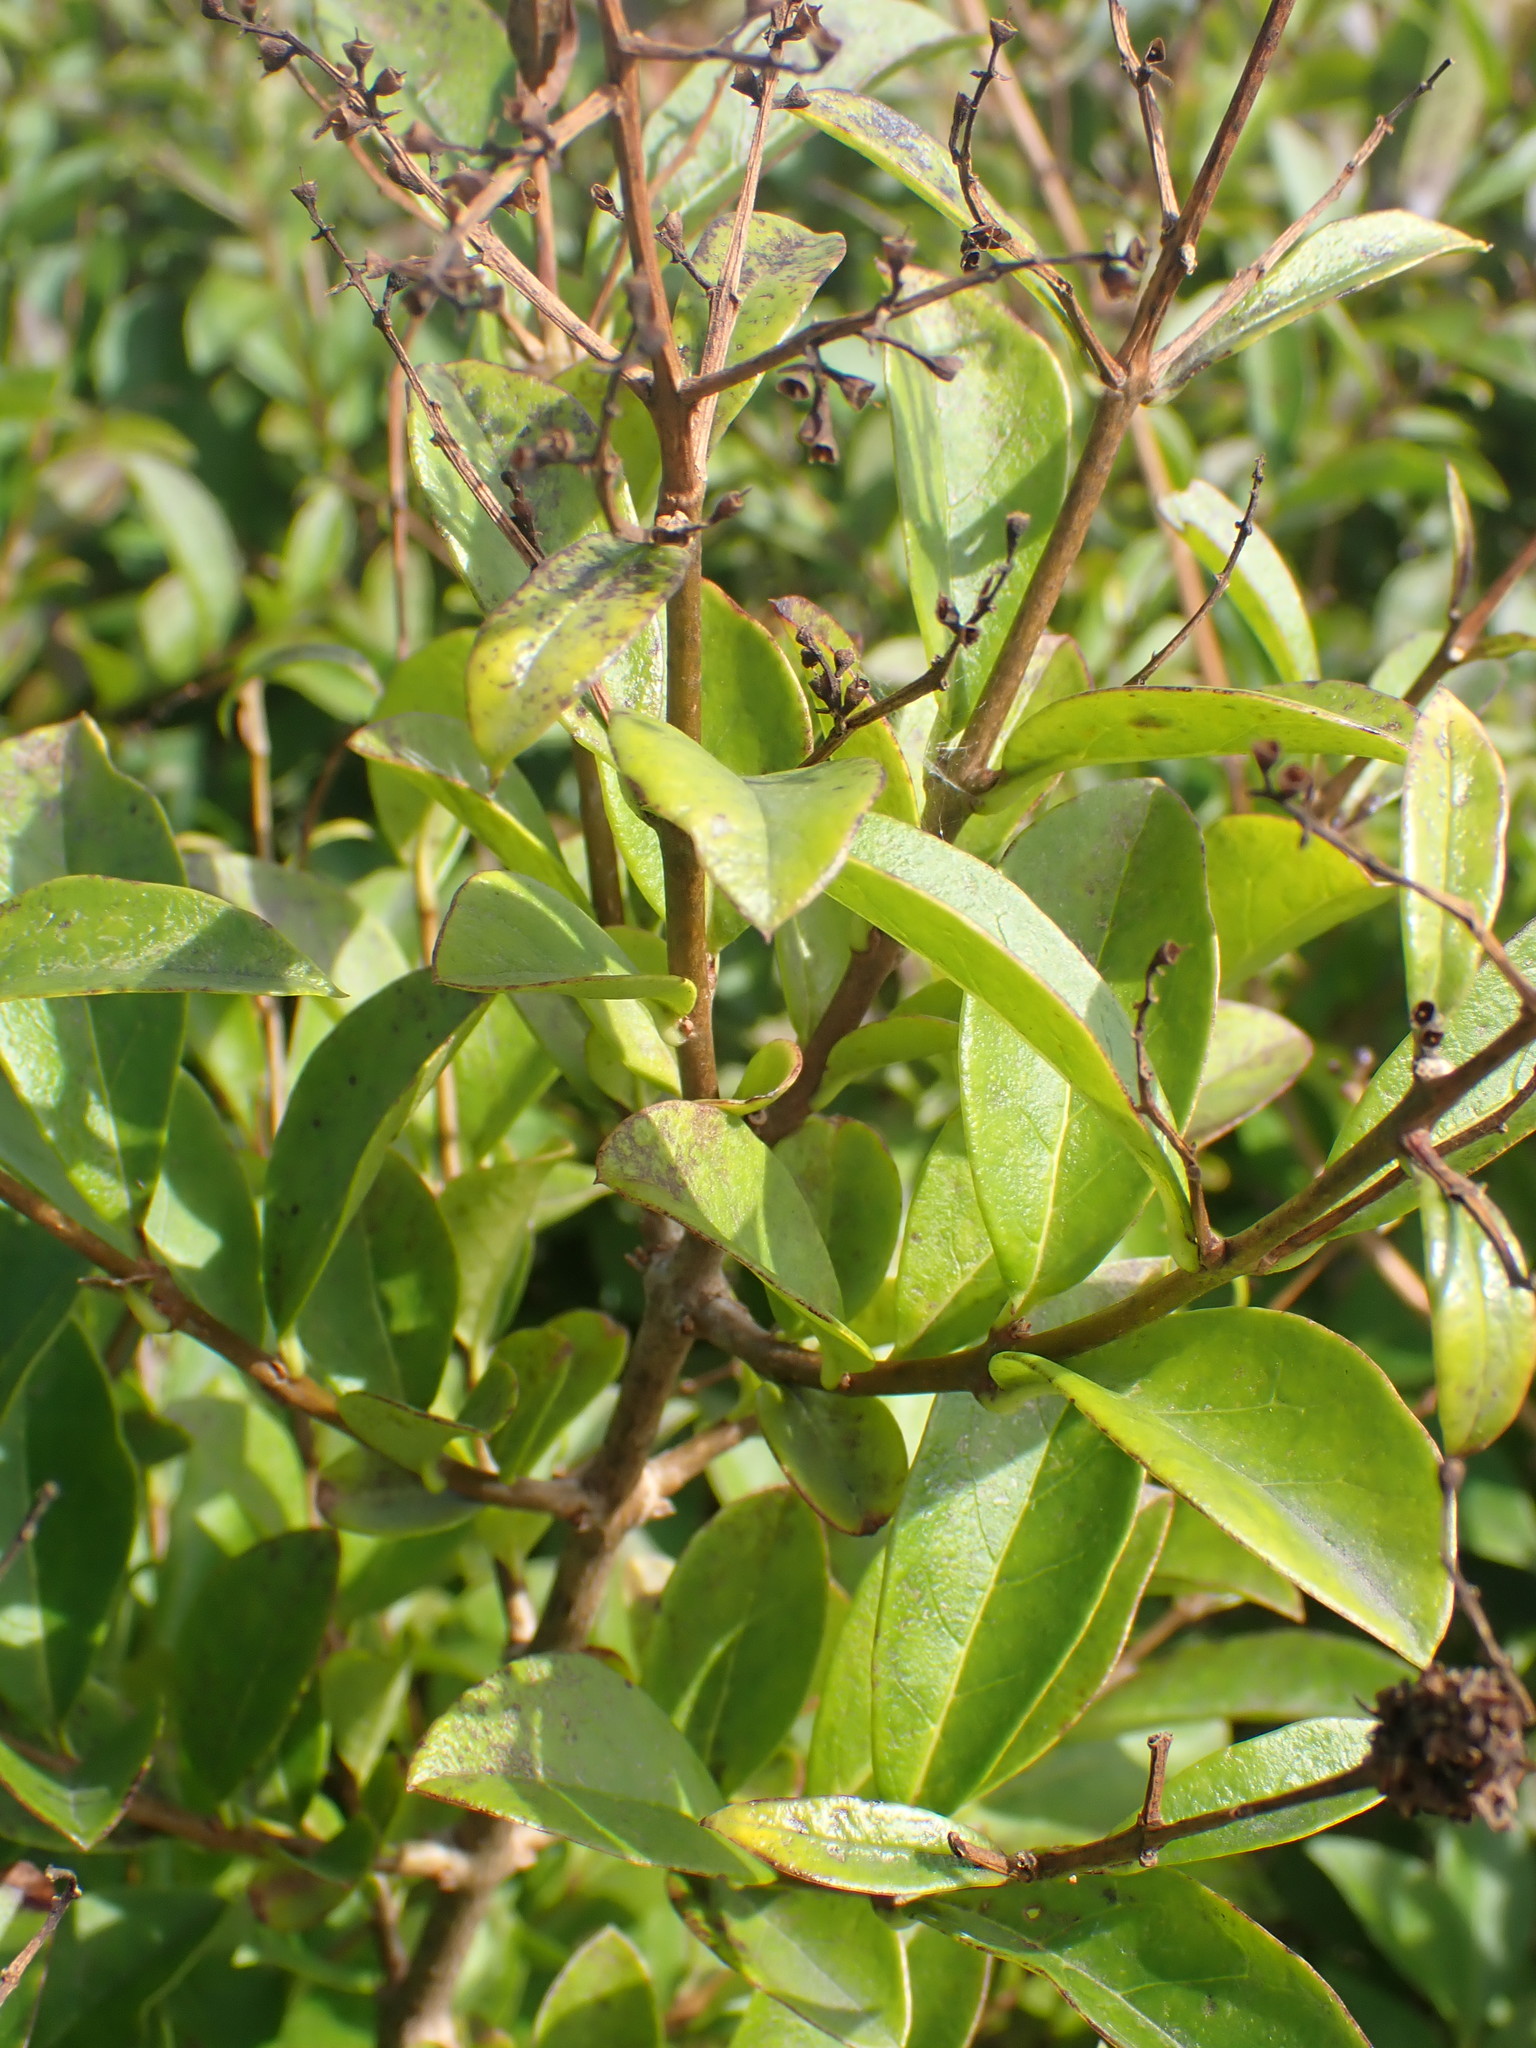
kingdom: Plantae
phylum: Tracheophyta
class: Magnoliopsida
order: Lamiales
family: Oleaceae
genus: Ligustrum
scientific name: Ligustrum vulgare
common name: Wild privet
